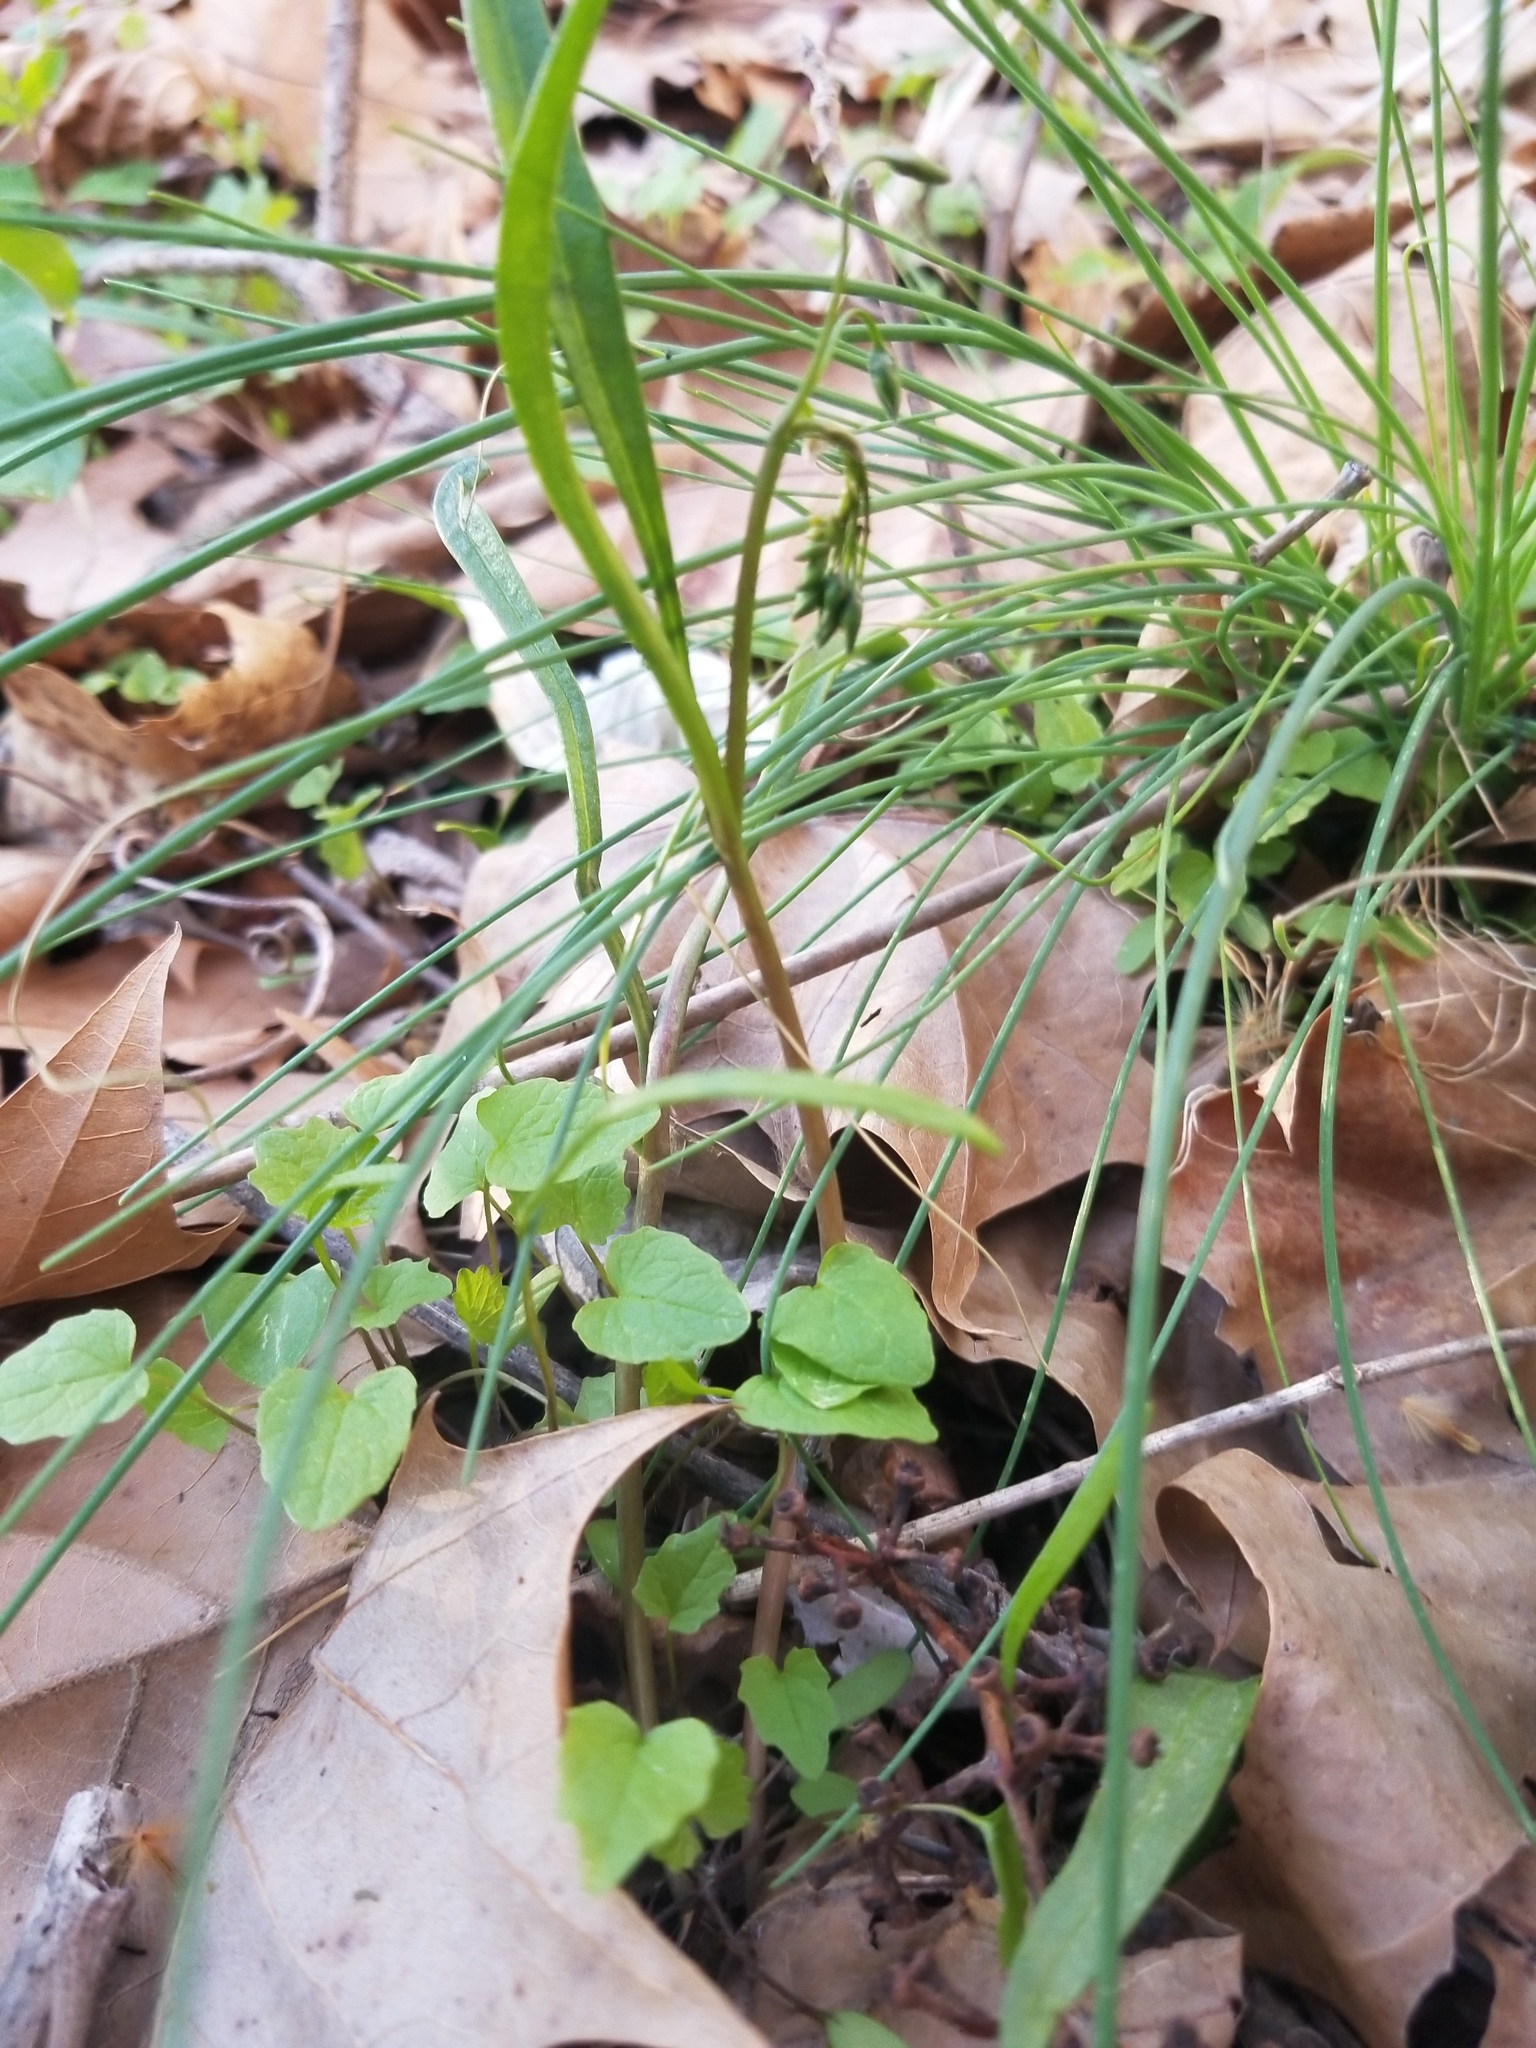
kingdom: Plantae
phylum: Tracheophyta
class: Magnoliopsida
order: Caryophyllales
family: Montiaceae
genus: Claytonia
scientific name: Claytonia virginica
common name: Virginia springbeauty
